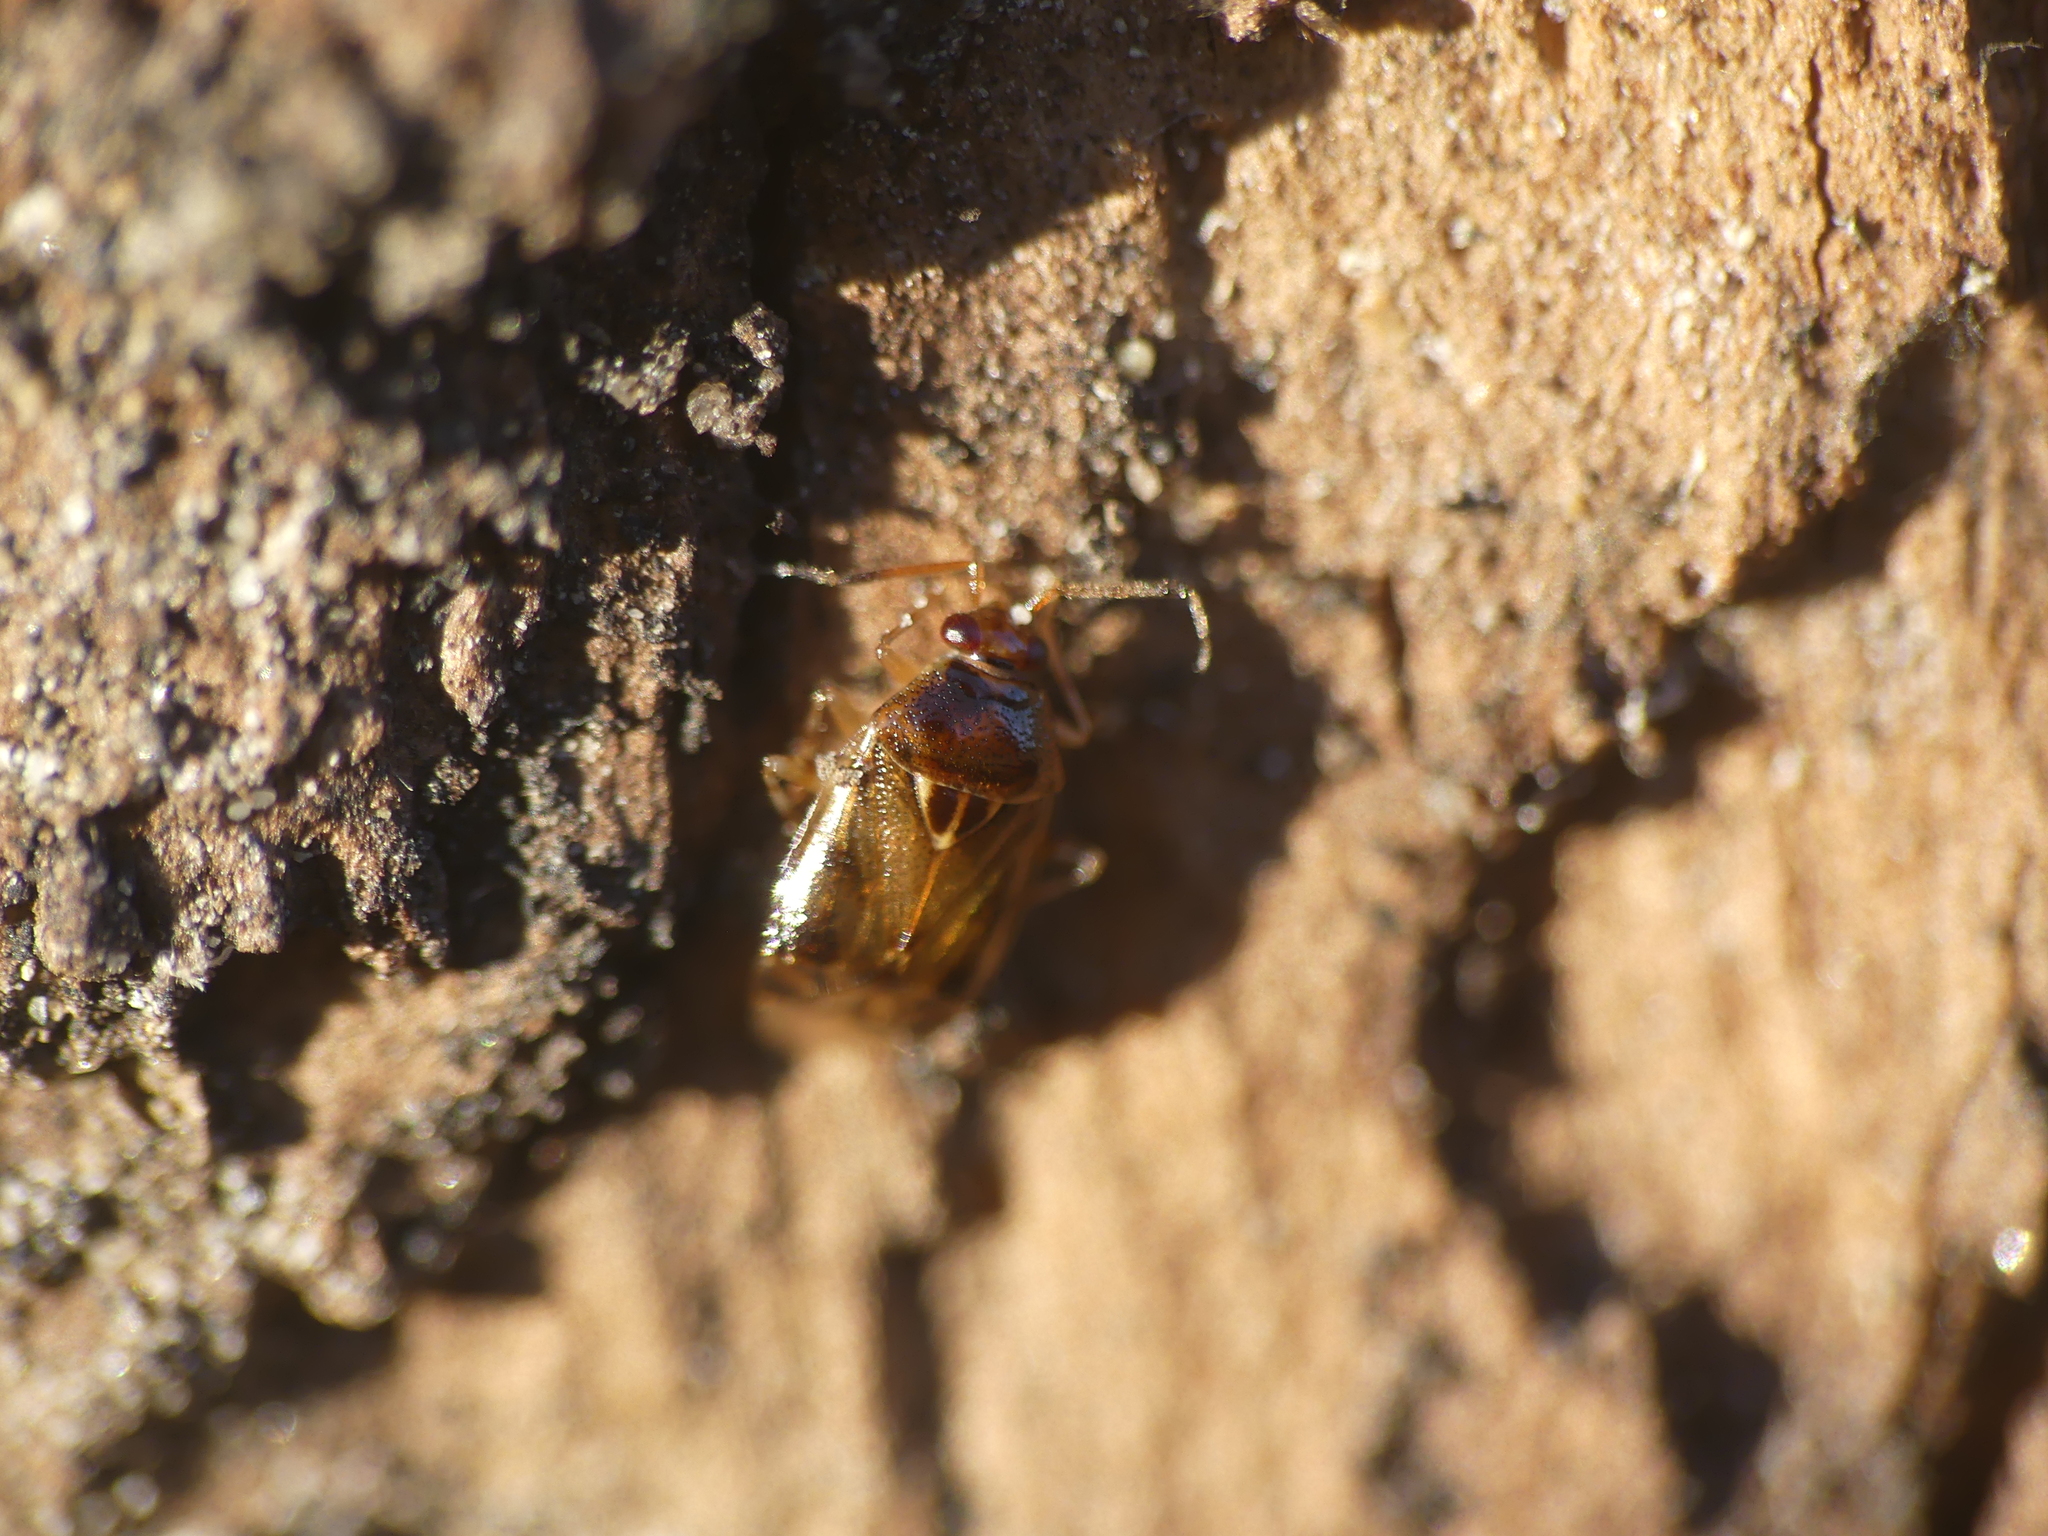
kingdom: Animalia
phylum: Arthropoda
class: Insecta
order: Hemiptera
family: Miridae
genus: Deraeocoris
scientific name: Deraeocoris lutescens
